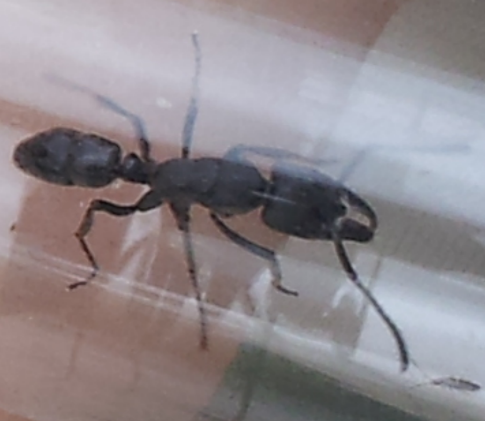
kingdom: Animalia
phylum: Arthropoda
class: Insecta
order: Hymenoptera
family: Formicidae
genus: Paltothyreus
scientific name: Paltothyreus tarsatus
